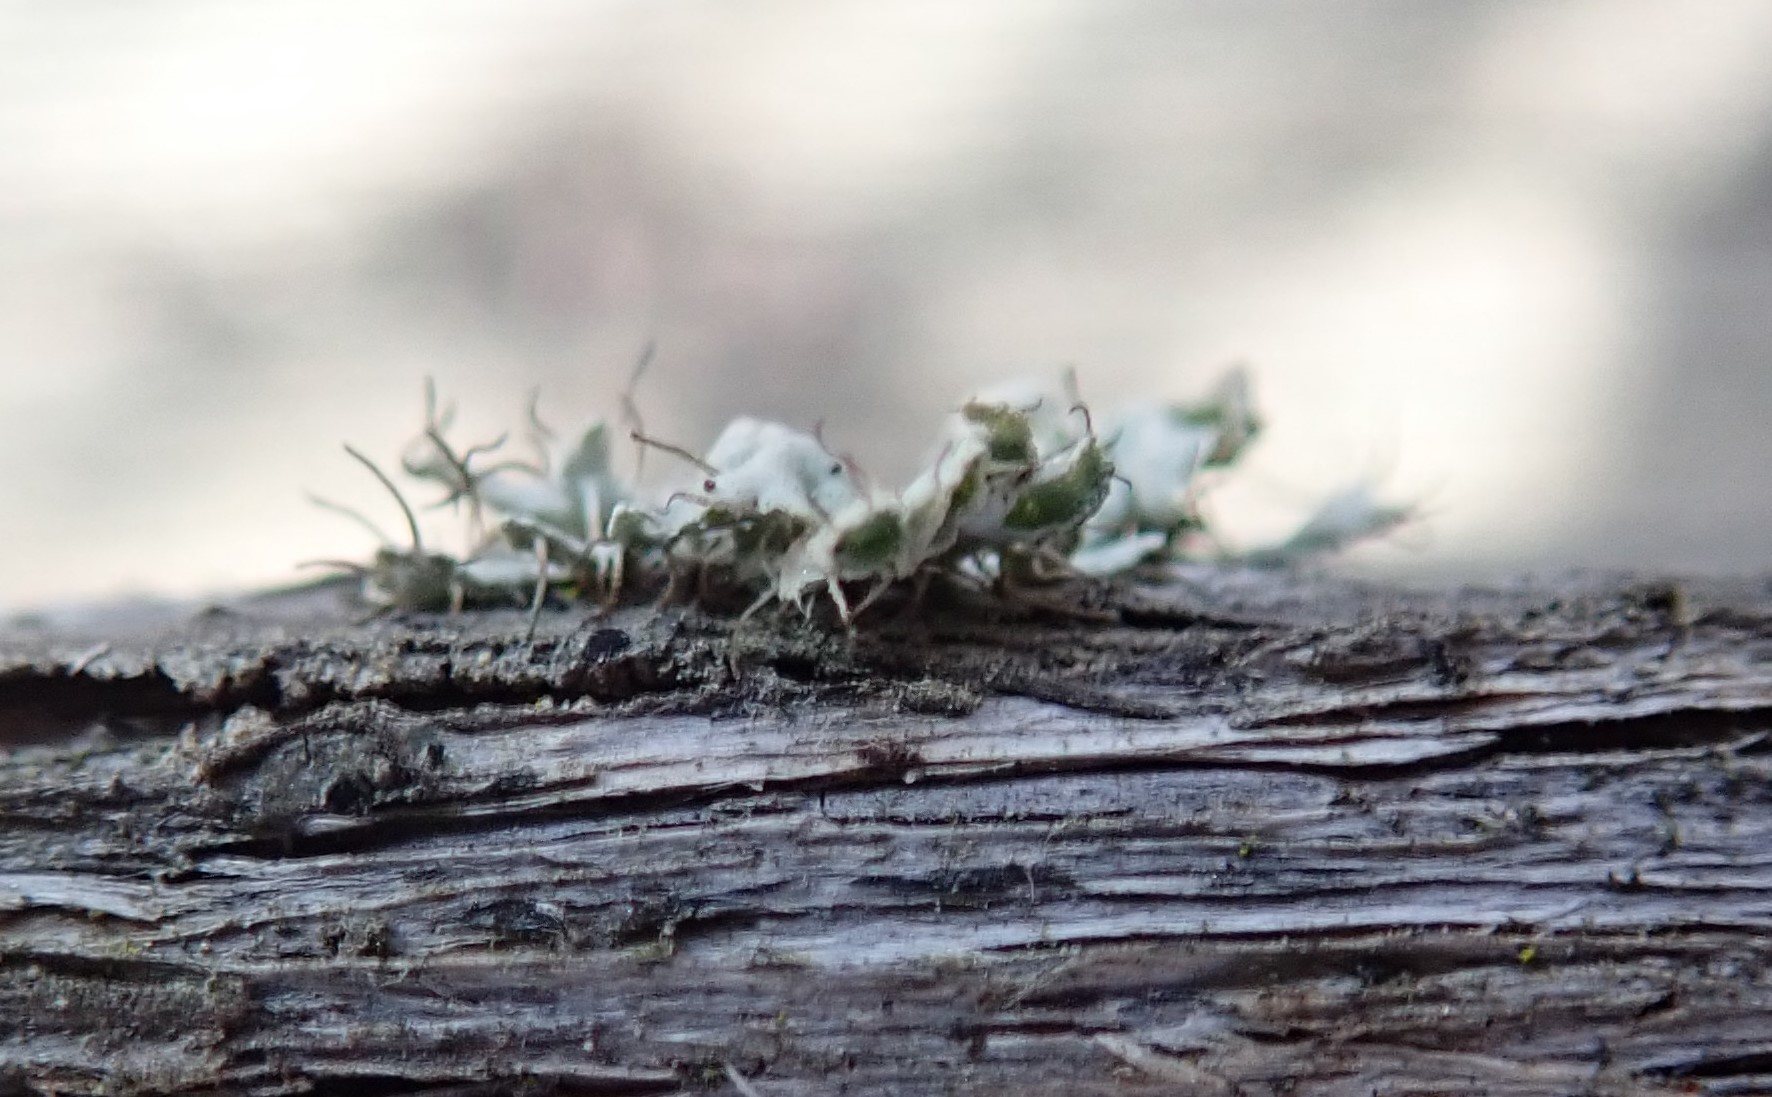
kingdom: Fungi
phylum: Ascomycota
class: Lecanoromycetes
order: Caliciales
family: Physciaceae
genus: Physcia
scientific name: Physcia adscendens
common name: Hooded rosette lichen
